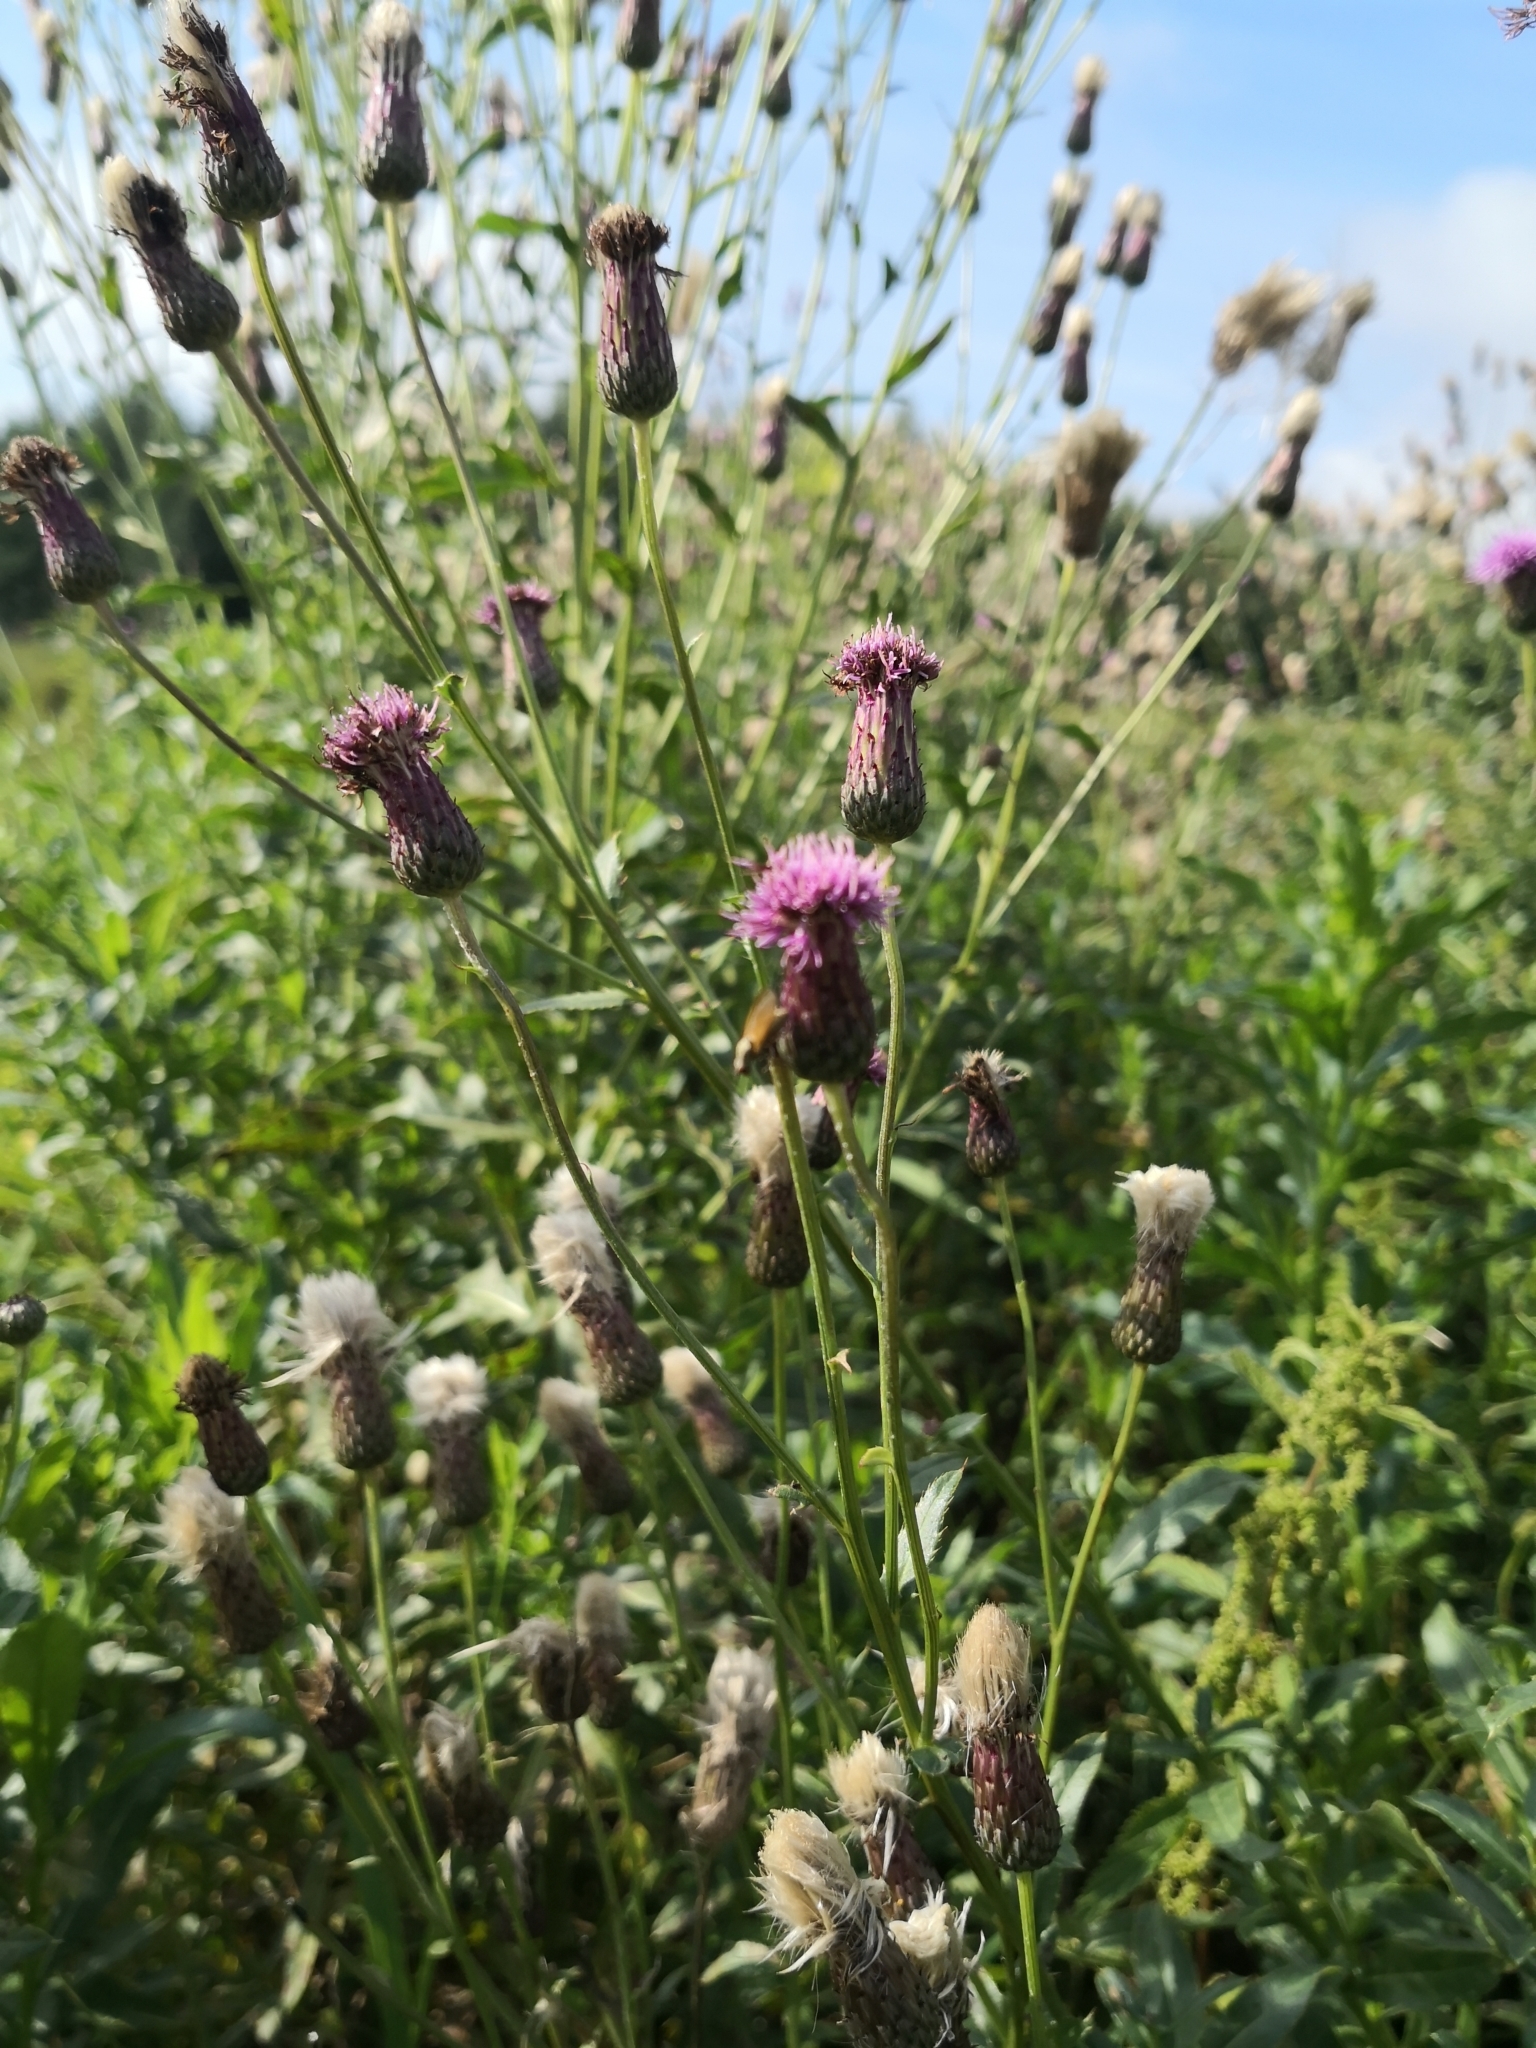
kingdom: Plantae
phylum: Tracheophyta
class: Magnoliopsida
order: Asterales
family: Asteraceae
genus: Cirsium
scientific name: Cirsium arvense
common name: Creeping thistle
